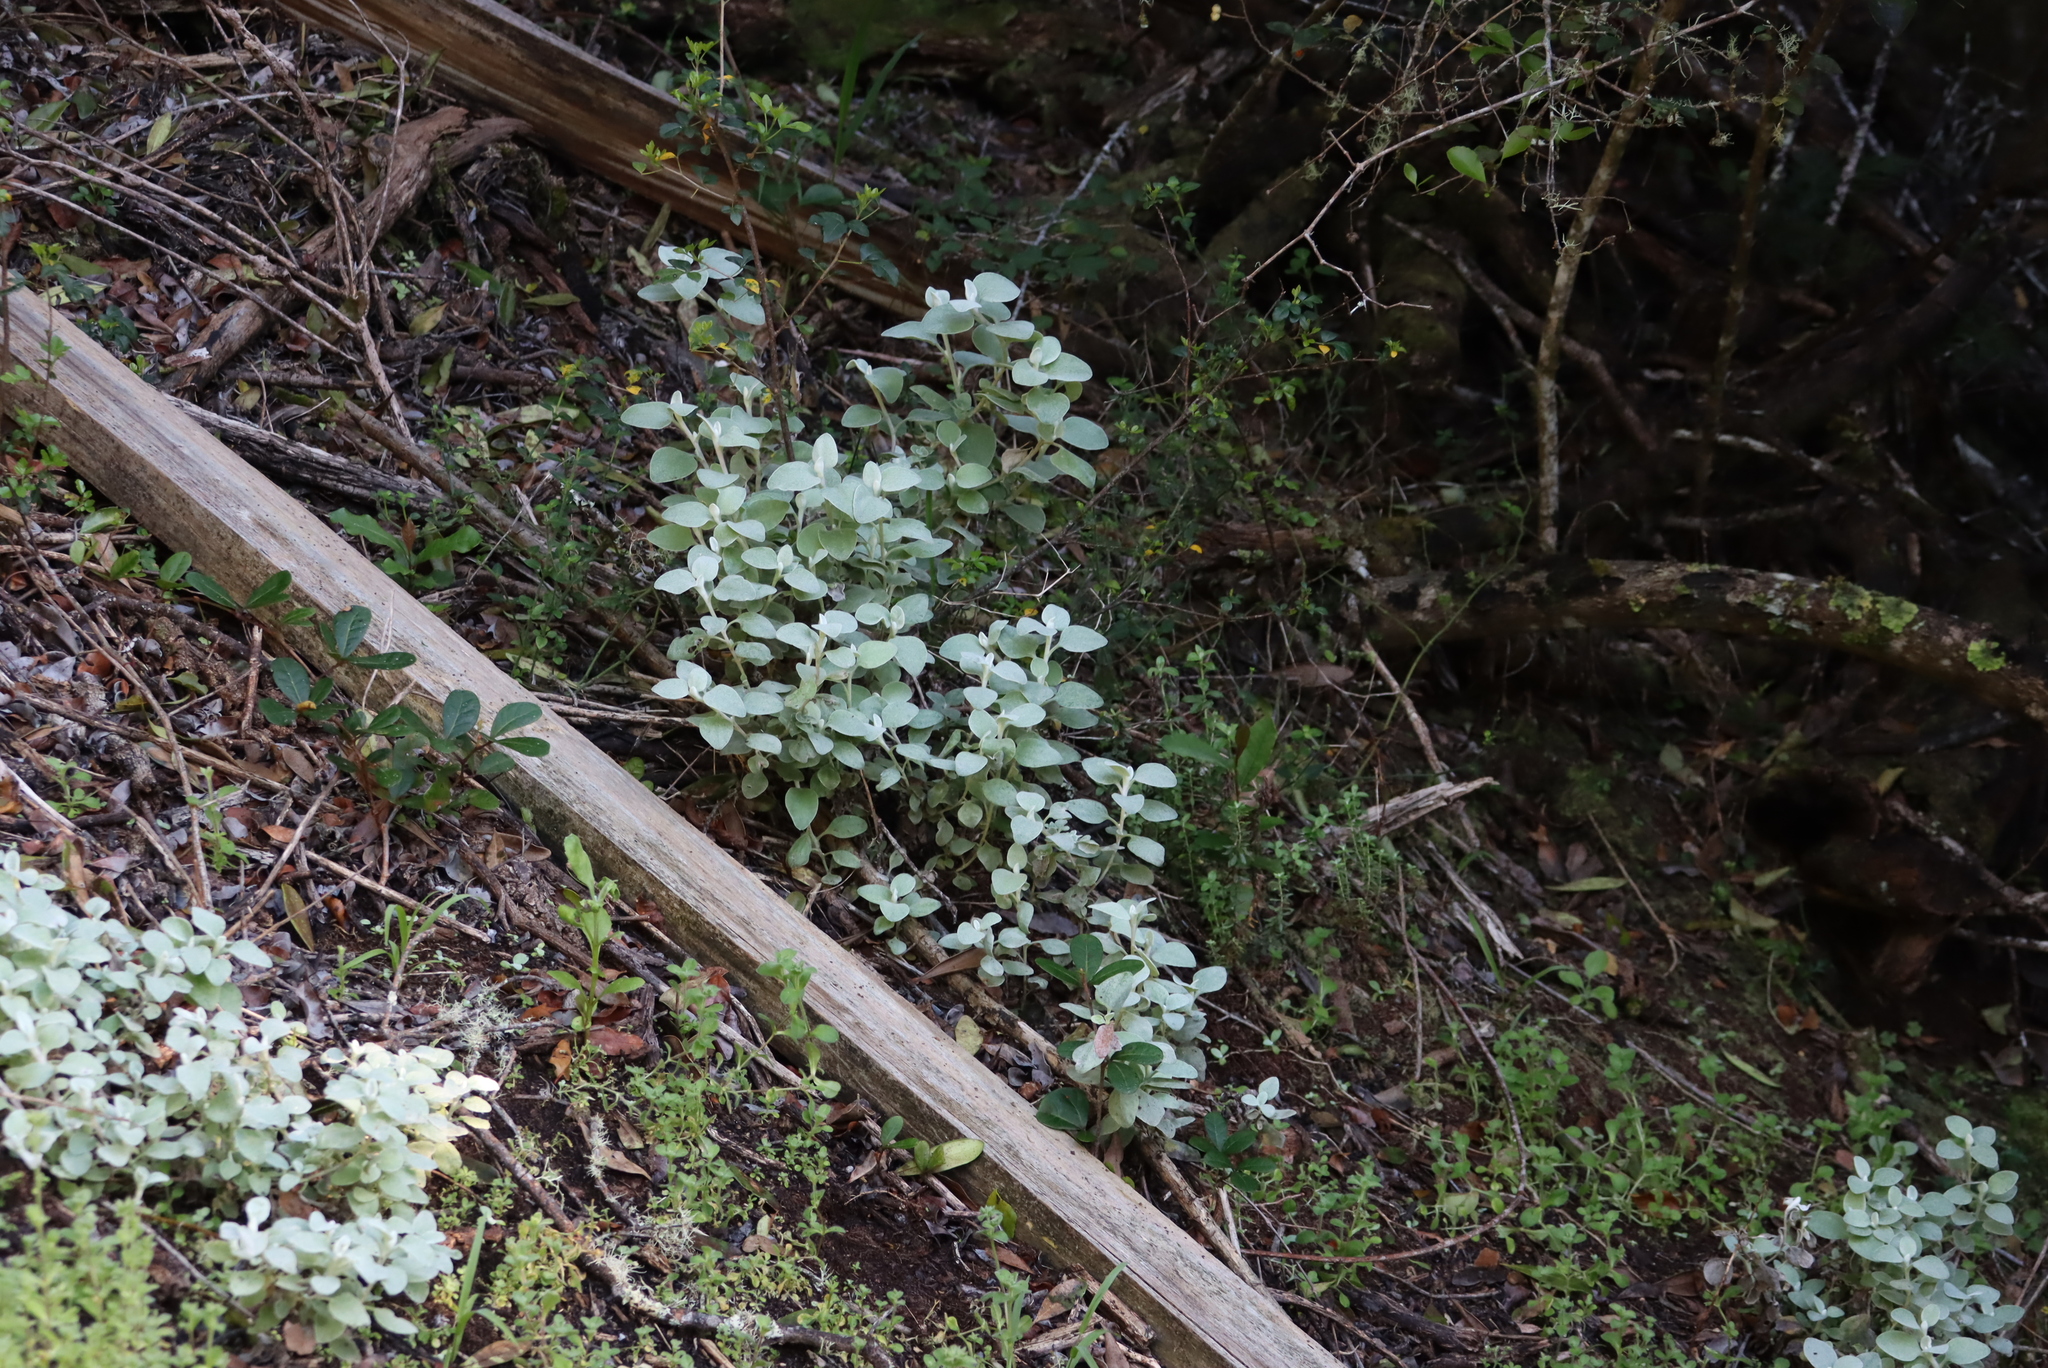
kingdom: Plantae
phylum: Tracheophyta
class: Magnoliopsida
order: Asterales
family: Asteraceae
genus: Helichrysum
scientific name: Helichrysum petiolare
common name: Licorice-plant
